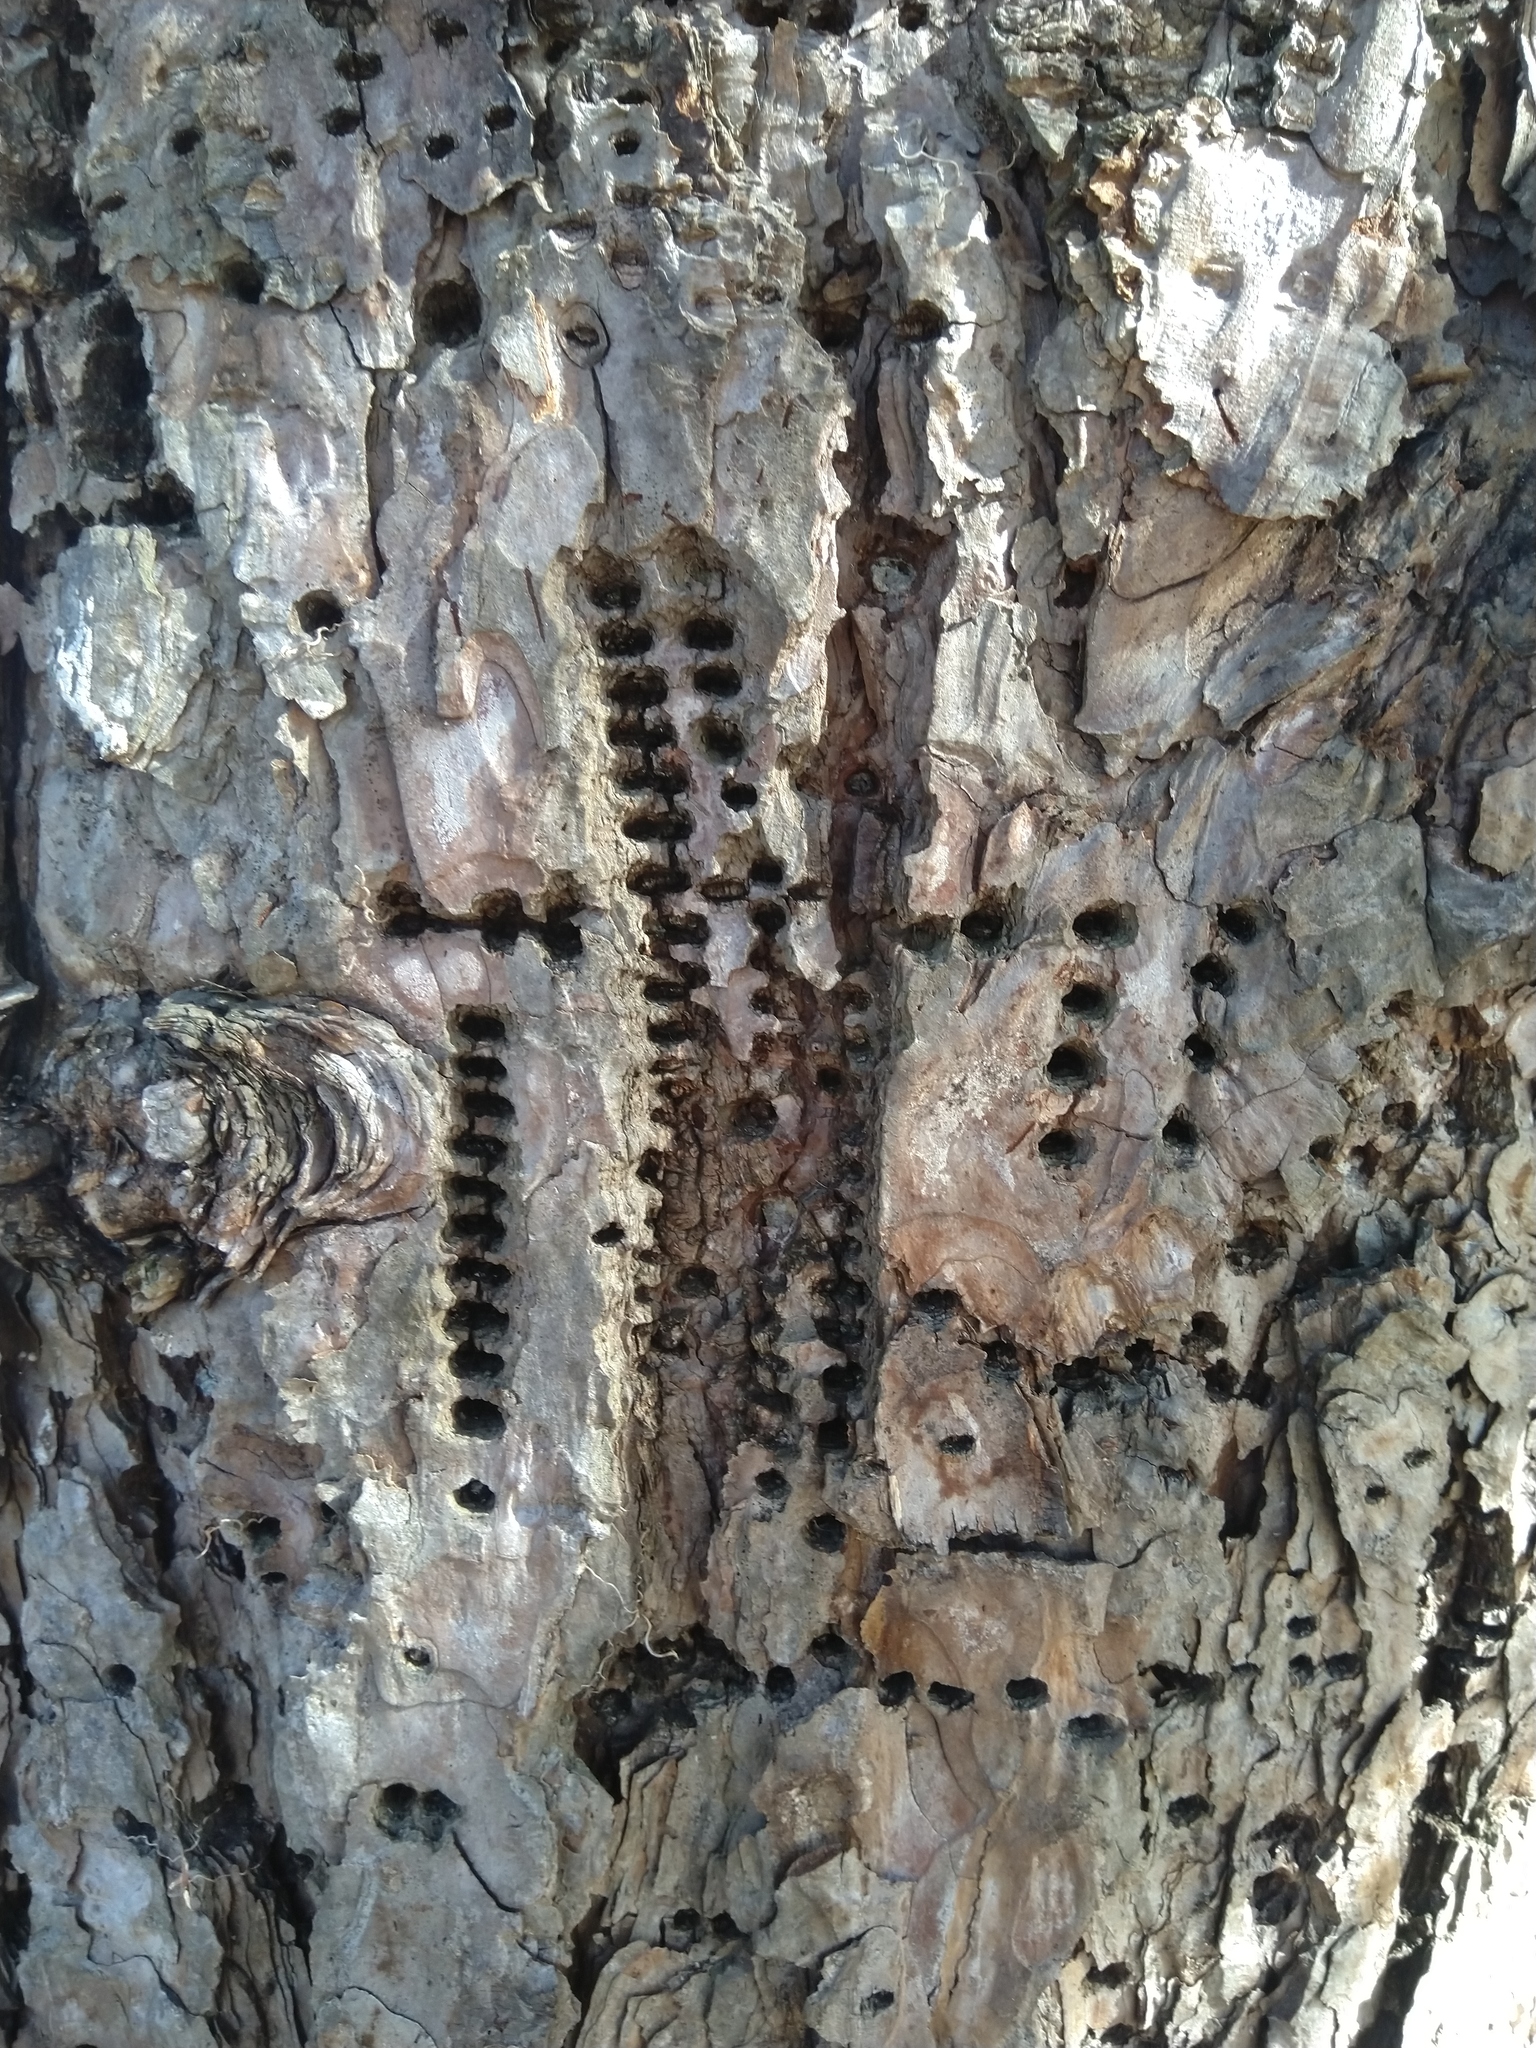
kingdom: Animalia
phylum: Chordata
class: Aves
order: Piciformes
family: Picidae
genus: Sphyrapicus
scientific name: Sphyrapicus varius
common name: Yellow-bellied sapsucker
